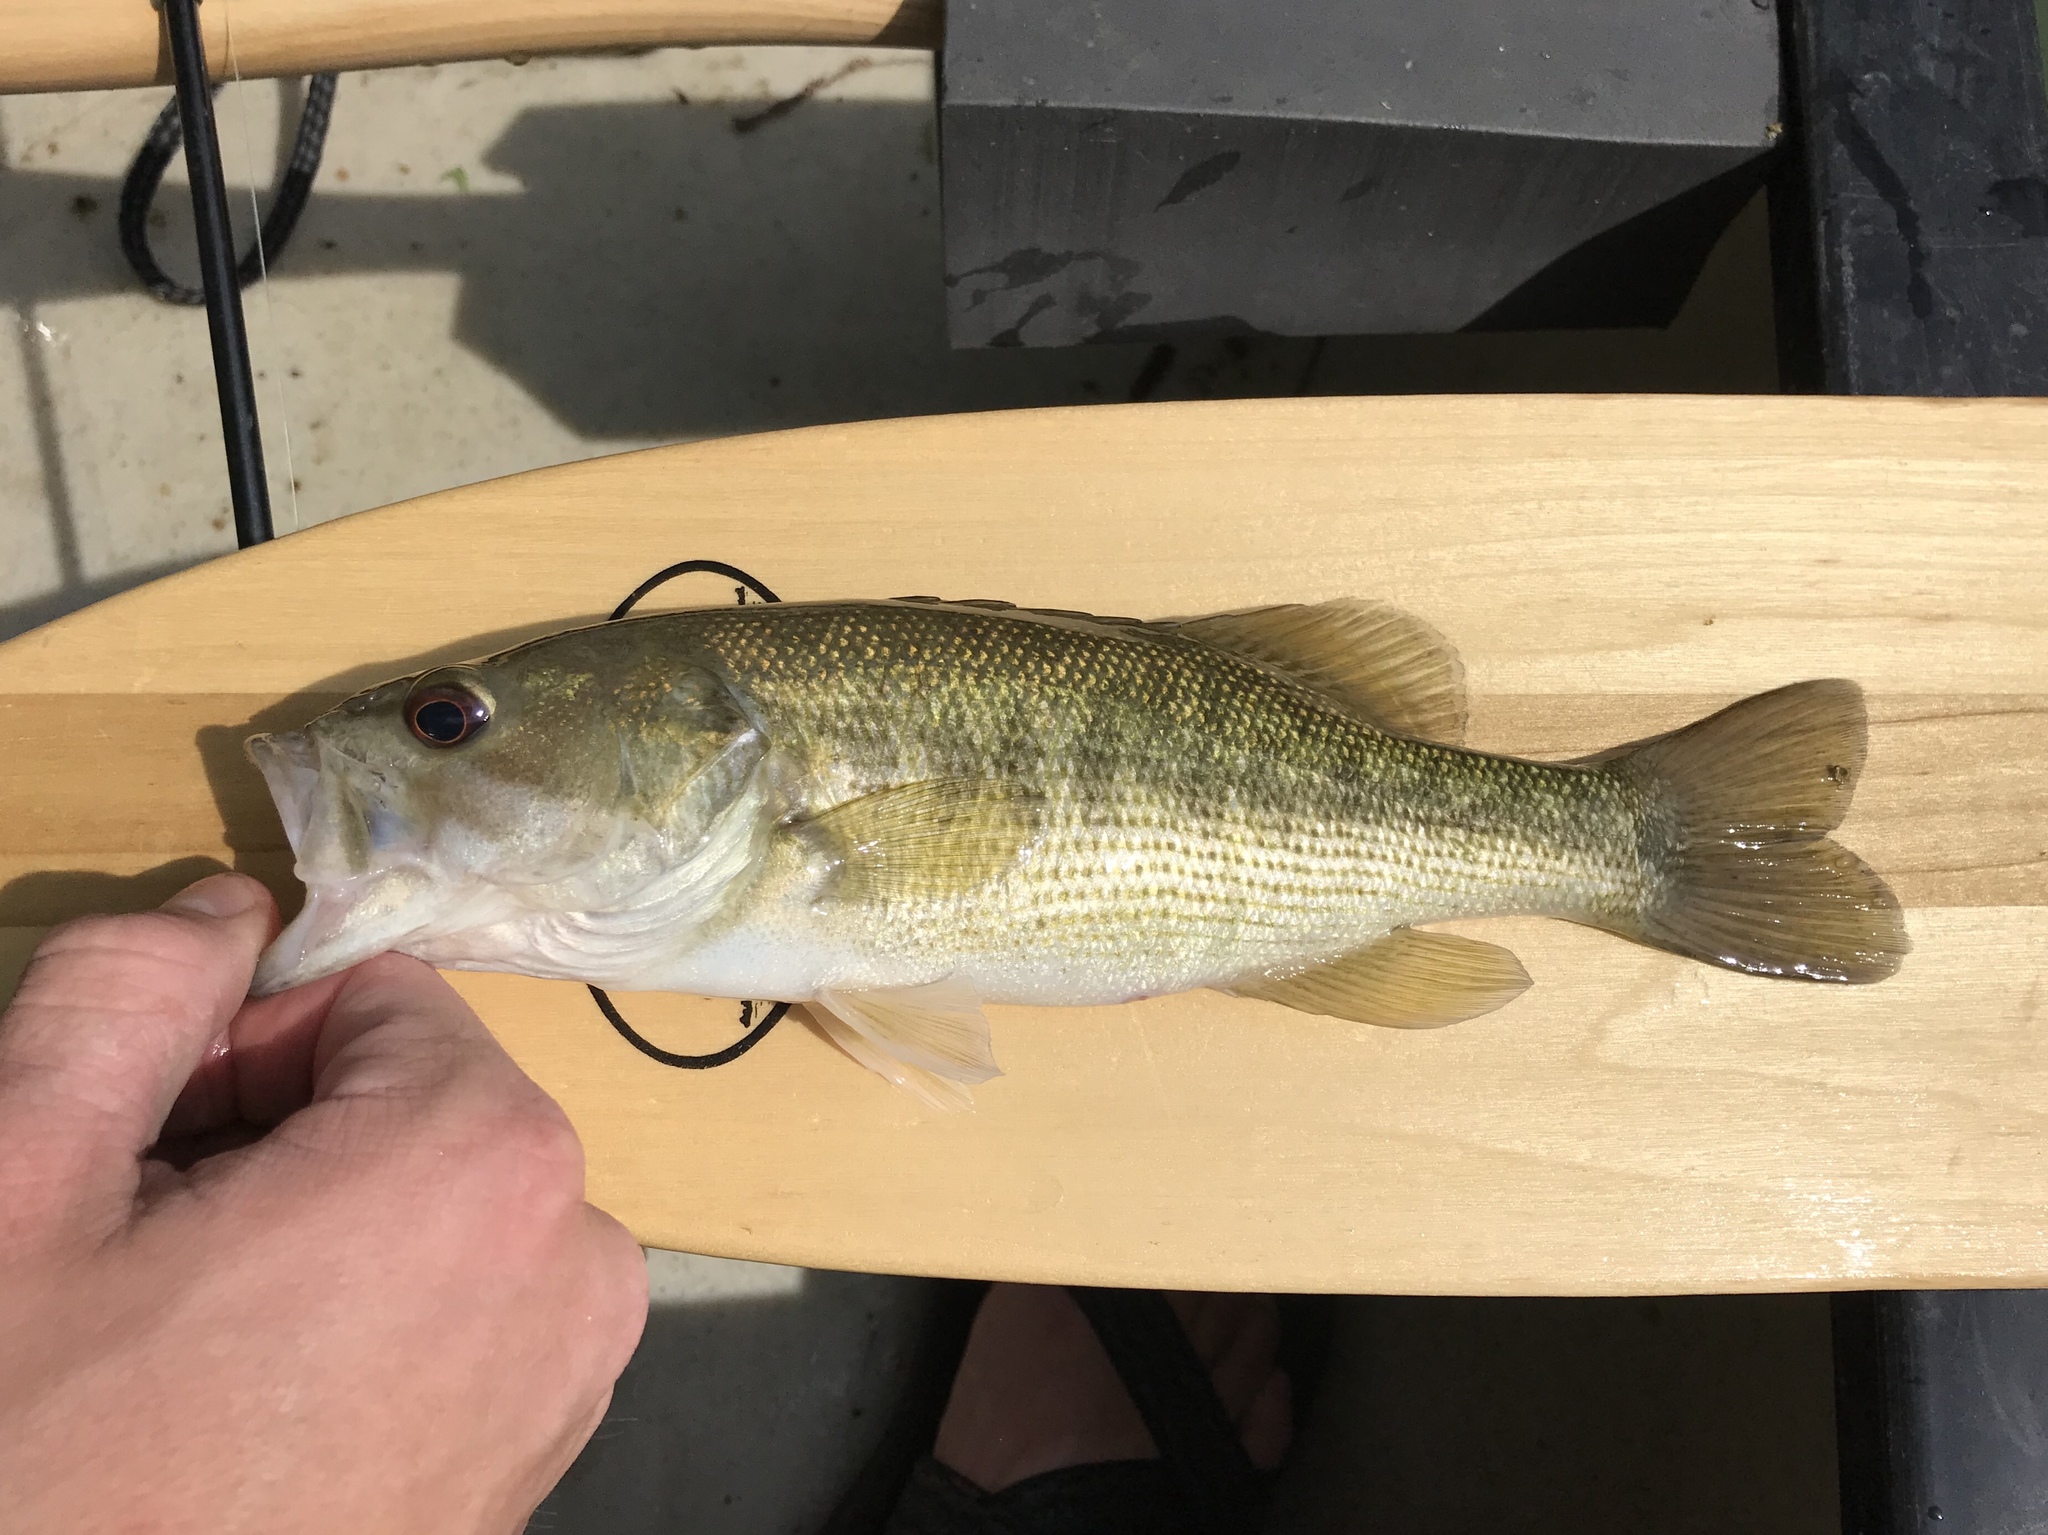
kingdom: Animalia
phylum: Chordata
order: Perciformes
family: Centrarchidae
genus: Micropterus
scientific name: Micropterus treculii
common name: Guadalupe bass
